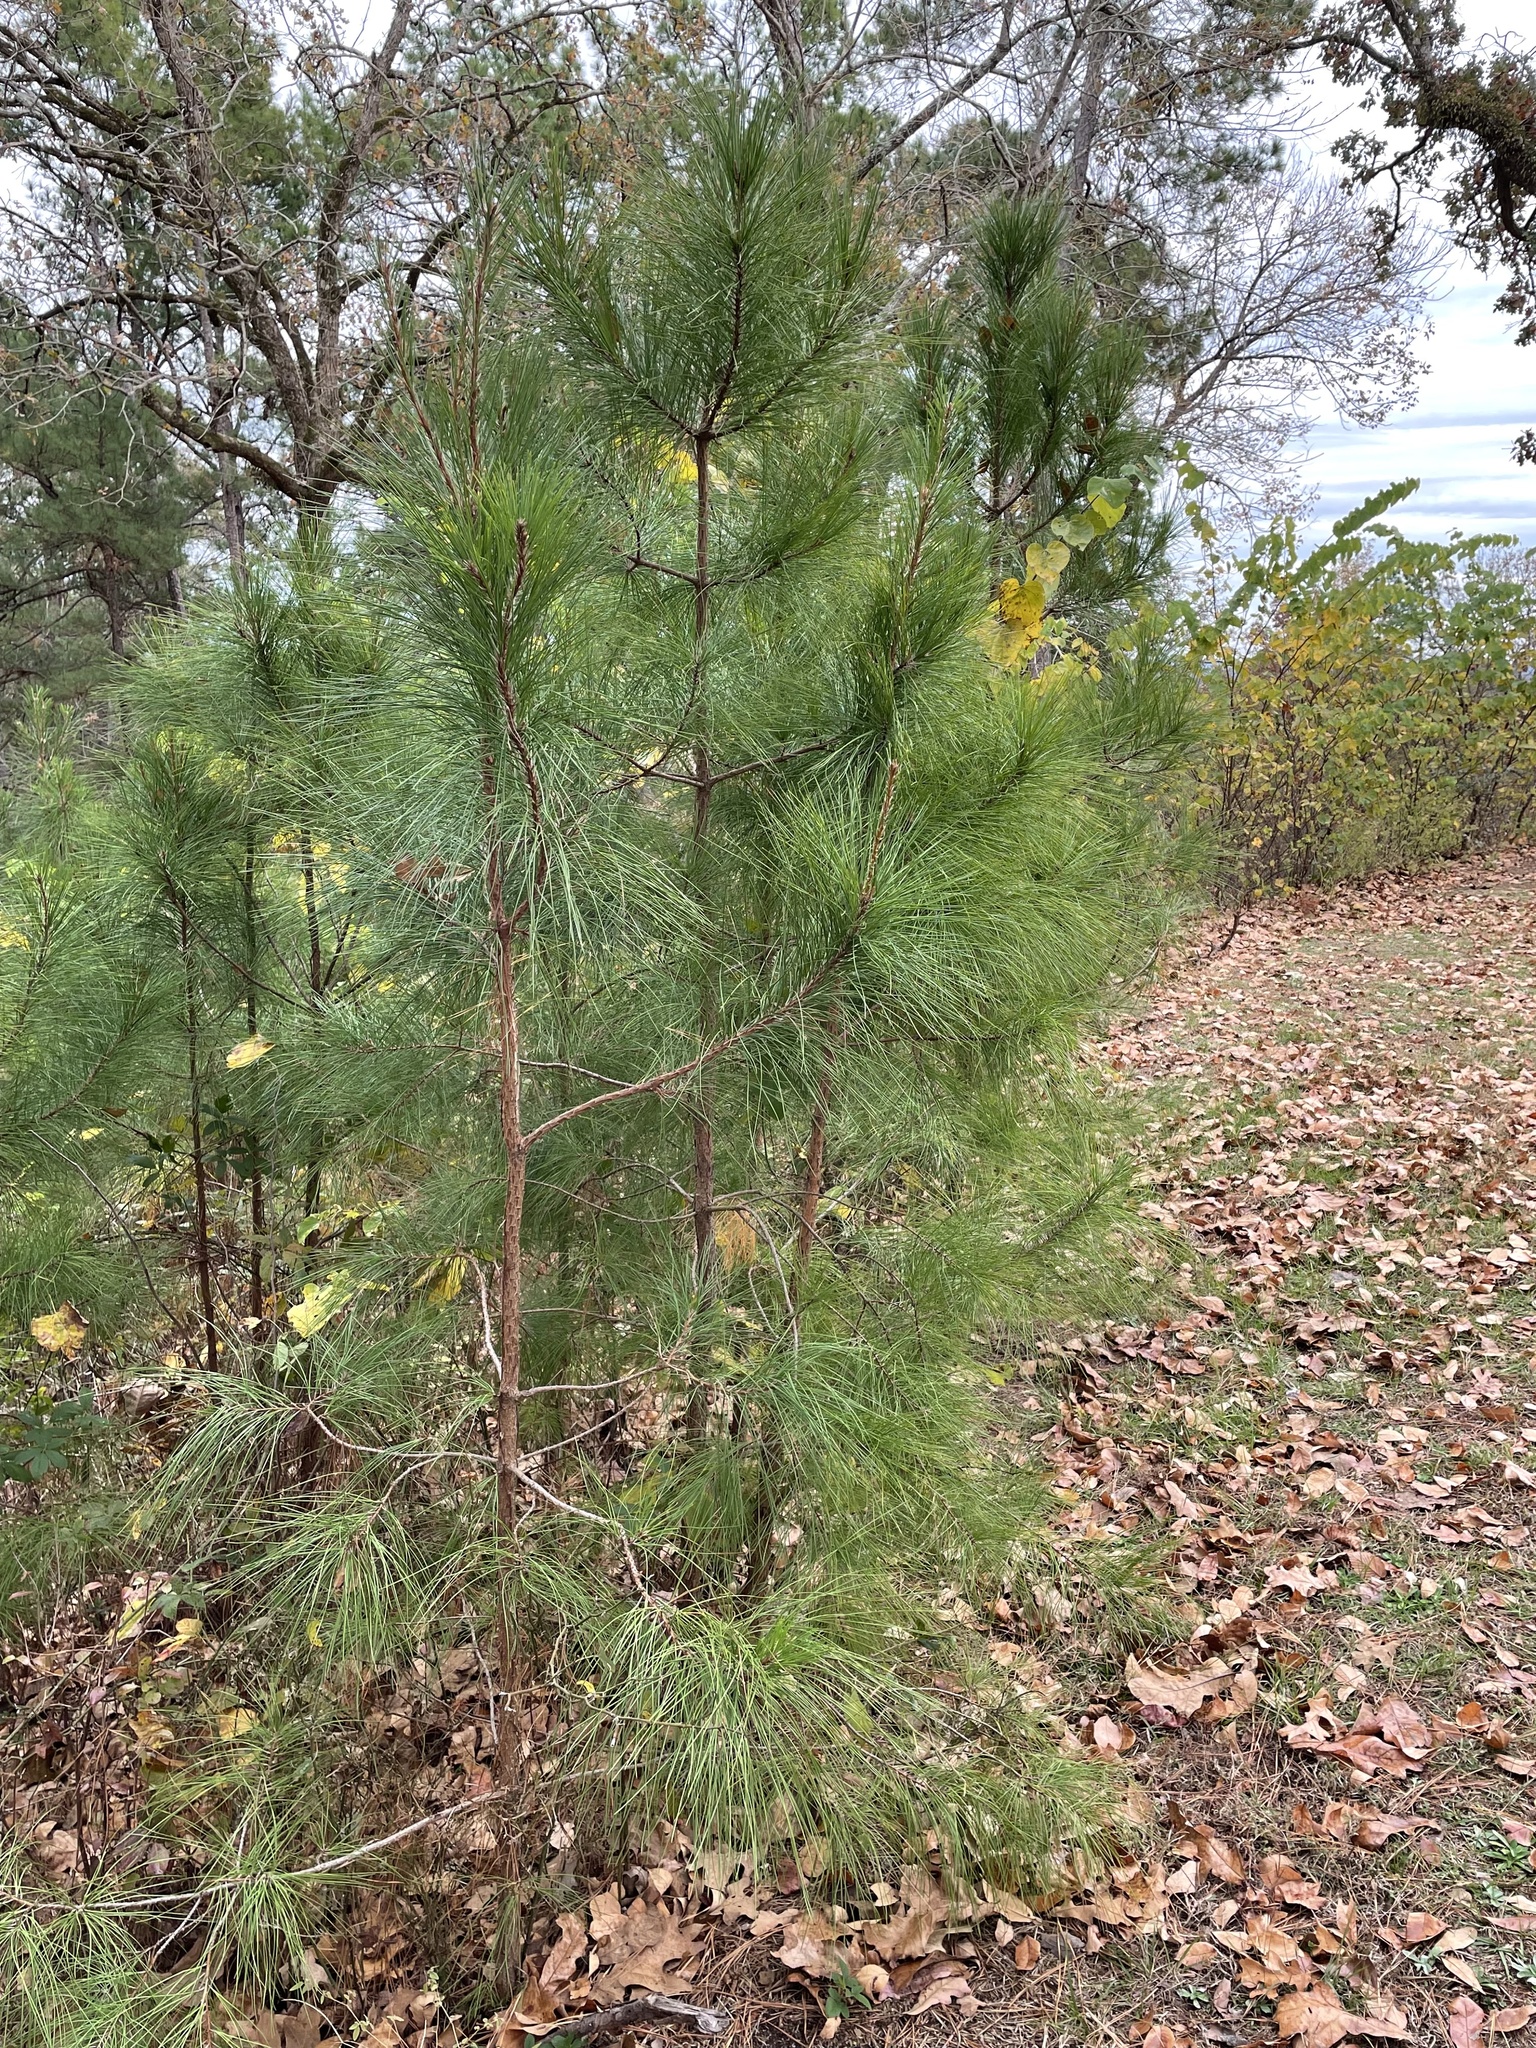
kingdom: Plantae
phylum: Tracheophyta
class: Pinopsida
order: Pinales
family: Pinaceae
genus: Pinus
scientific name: Pinus taeda
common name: Loblolly pine
